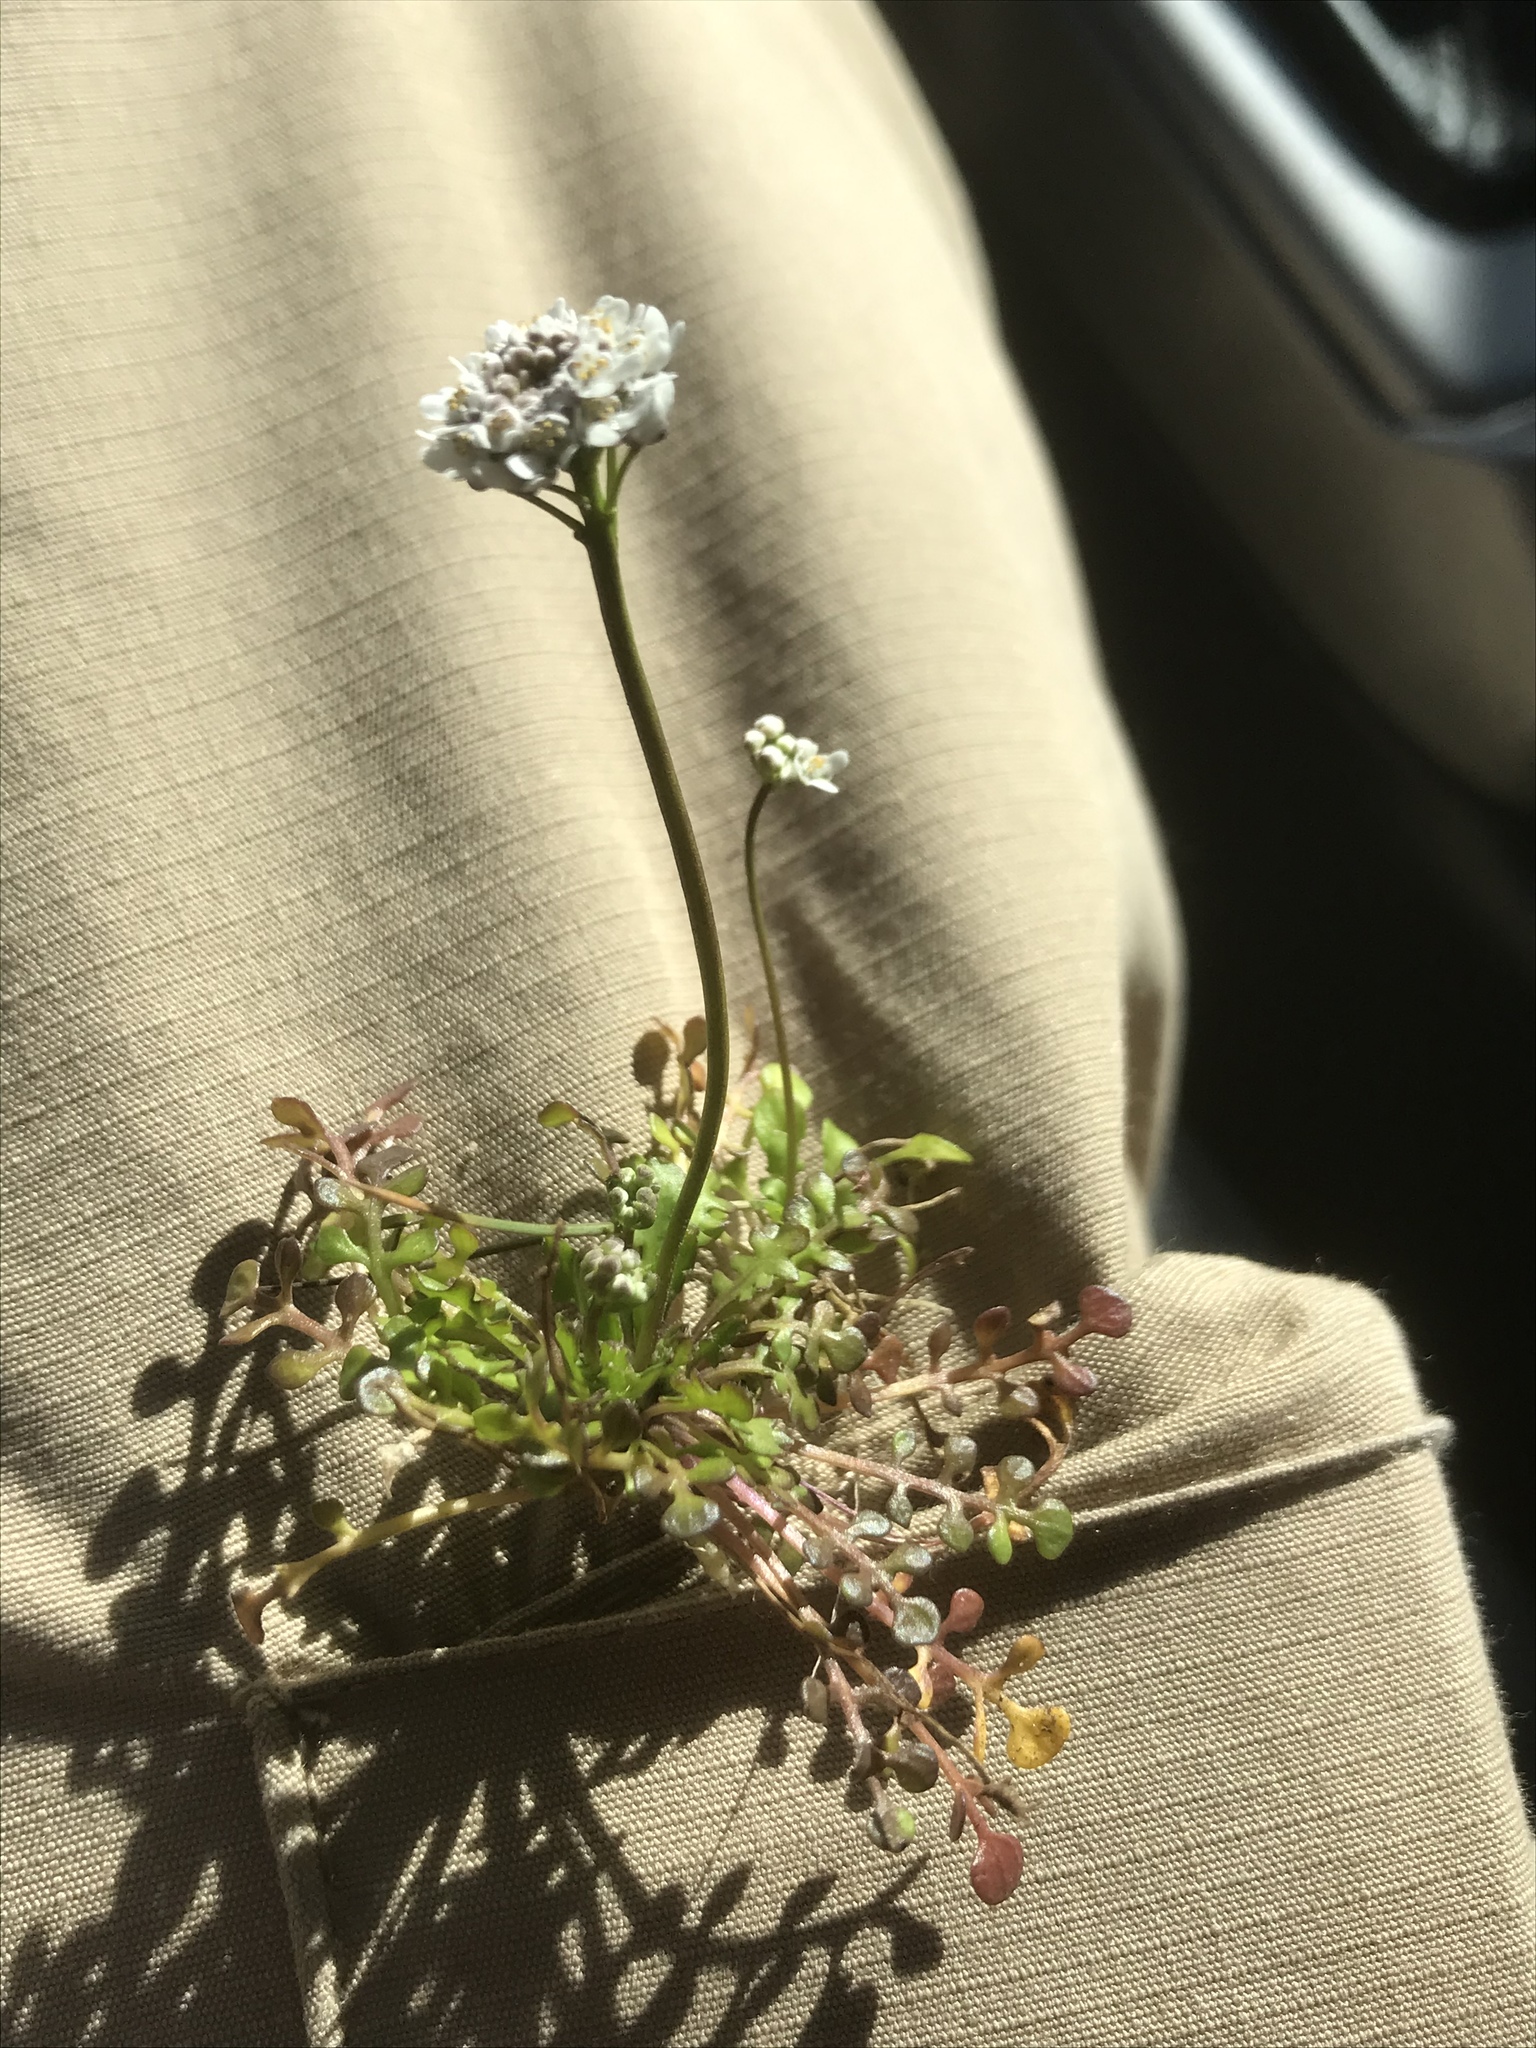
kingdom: Plantae
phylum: Tracheophyta
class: Magnoliopsida
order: Brassicales
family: Brassicaceae
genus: Teesdalia
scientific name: Teesdalia nudicaulis
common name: Shepherd's cress
